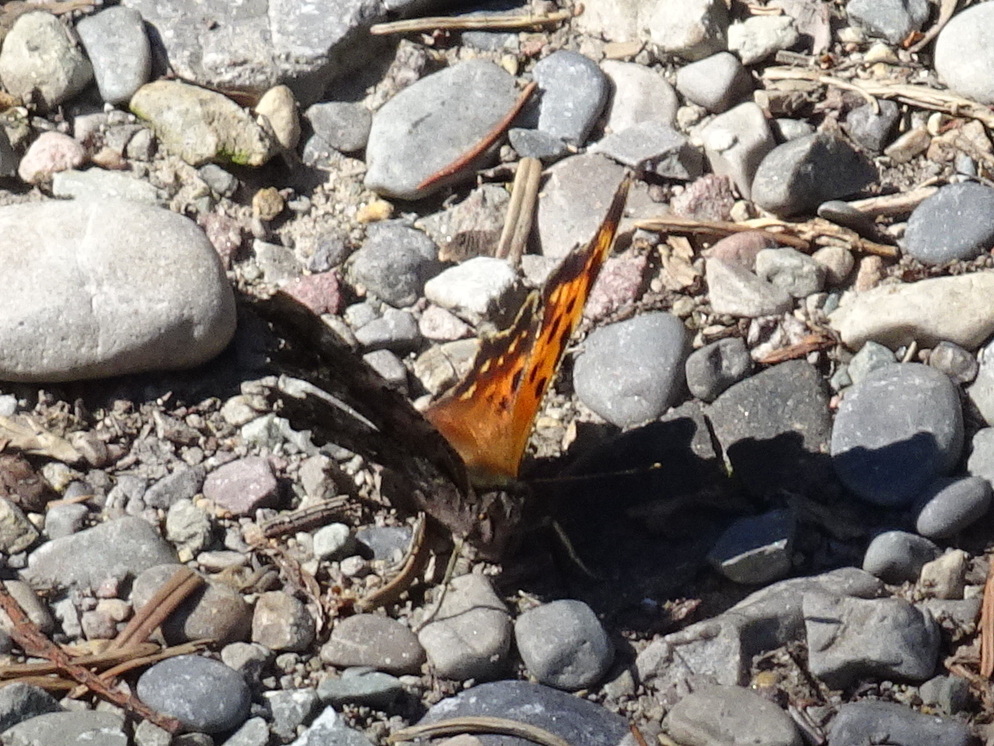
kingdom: Animalia
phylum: Arthropoda
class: Insecta
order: Lepidoptera
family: Nymphalidae
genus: Polygonia
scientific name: Polygonia faunus
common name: Green comma
